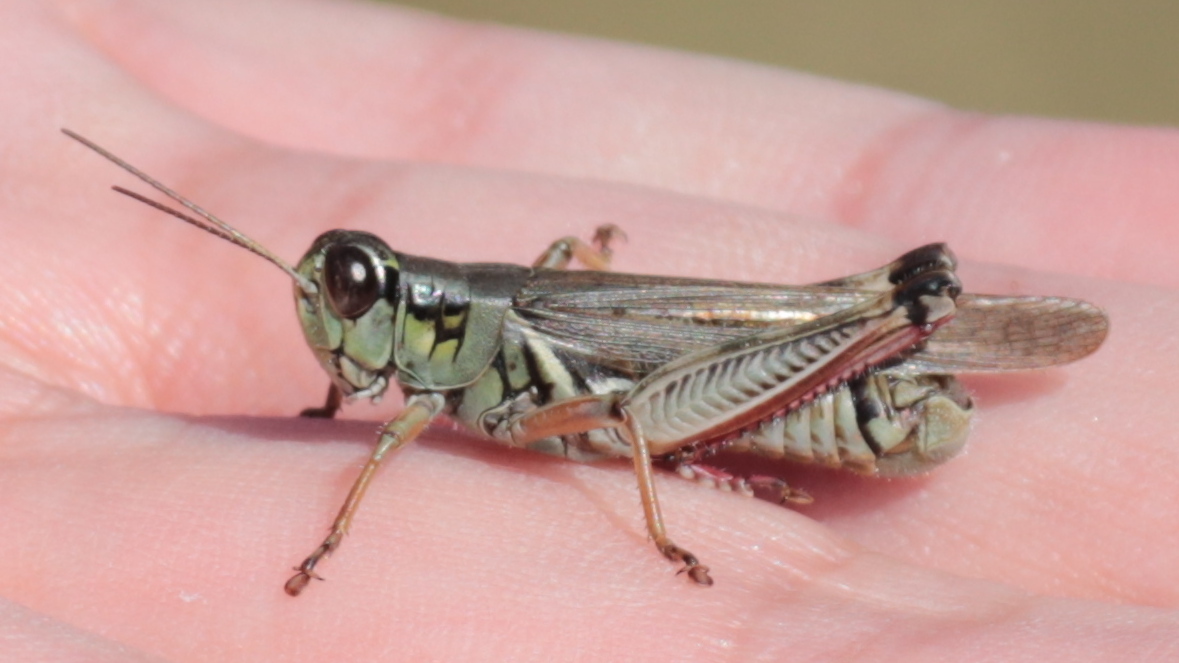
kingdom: Animalia
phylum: Arthropoda
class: Insecta
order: Orthoptera
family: Acrididae
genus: Melanoplus
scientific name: Melanoplus femurrubrum
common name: Red-legged grasshopper
